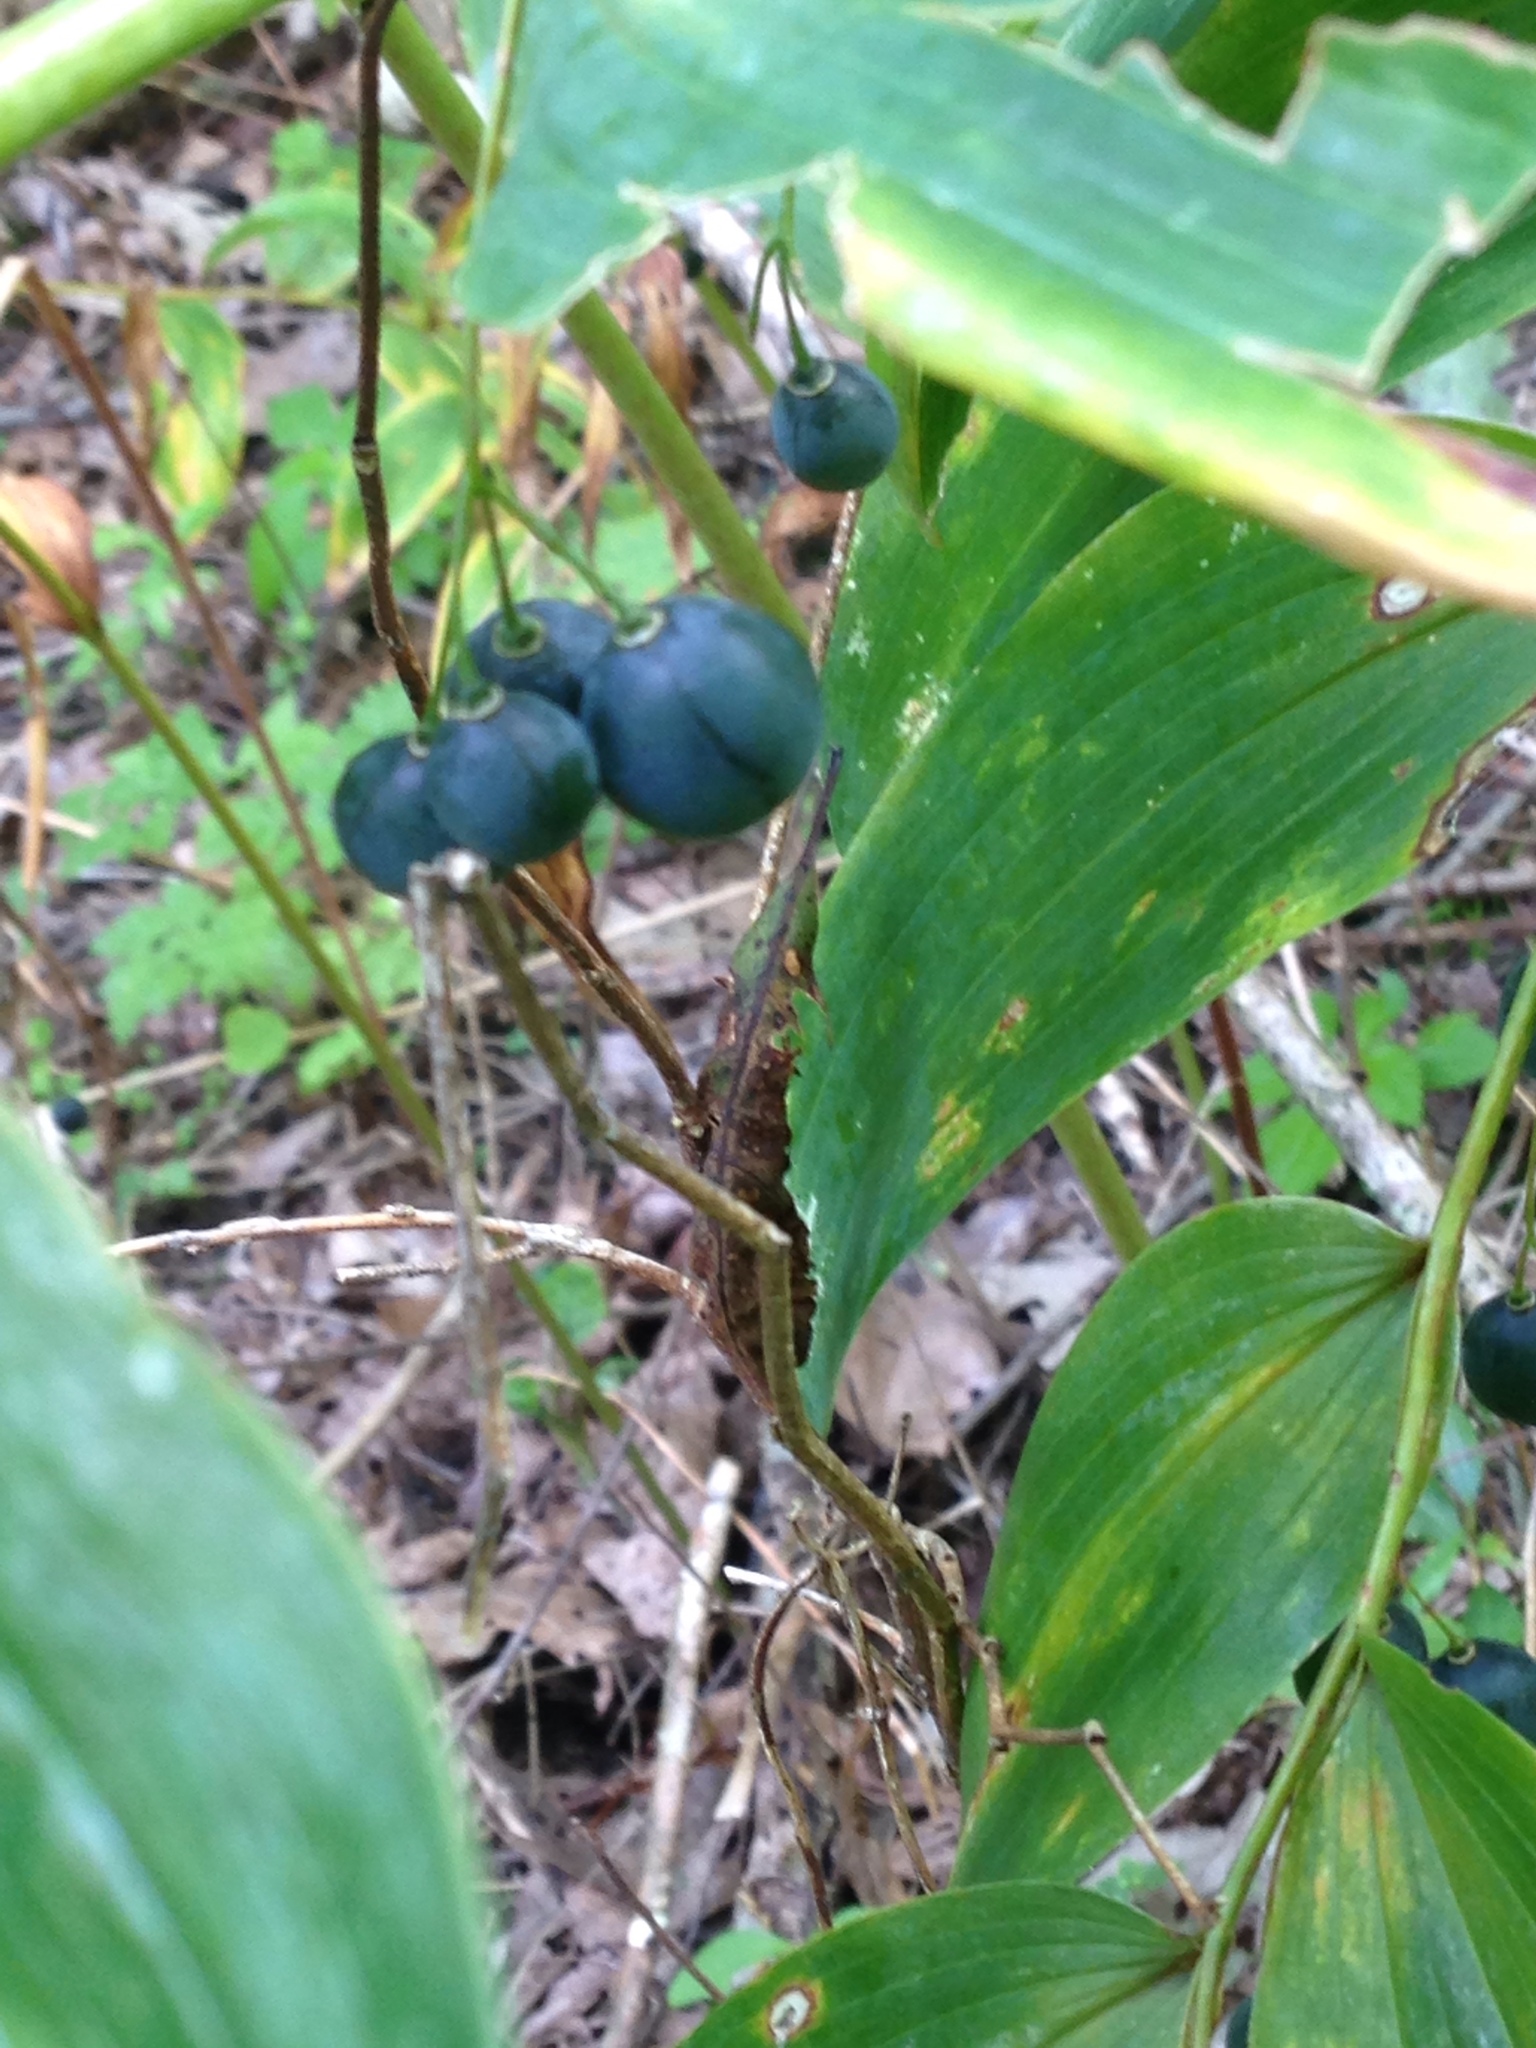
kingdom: Plantae
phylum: Tracheophyta
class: Liliopsida
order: Asparagales
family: Asparagaceae
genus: Polygonatum
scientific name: Polygonatum biflorum
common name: American solomon's-seal
